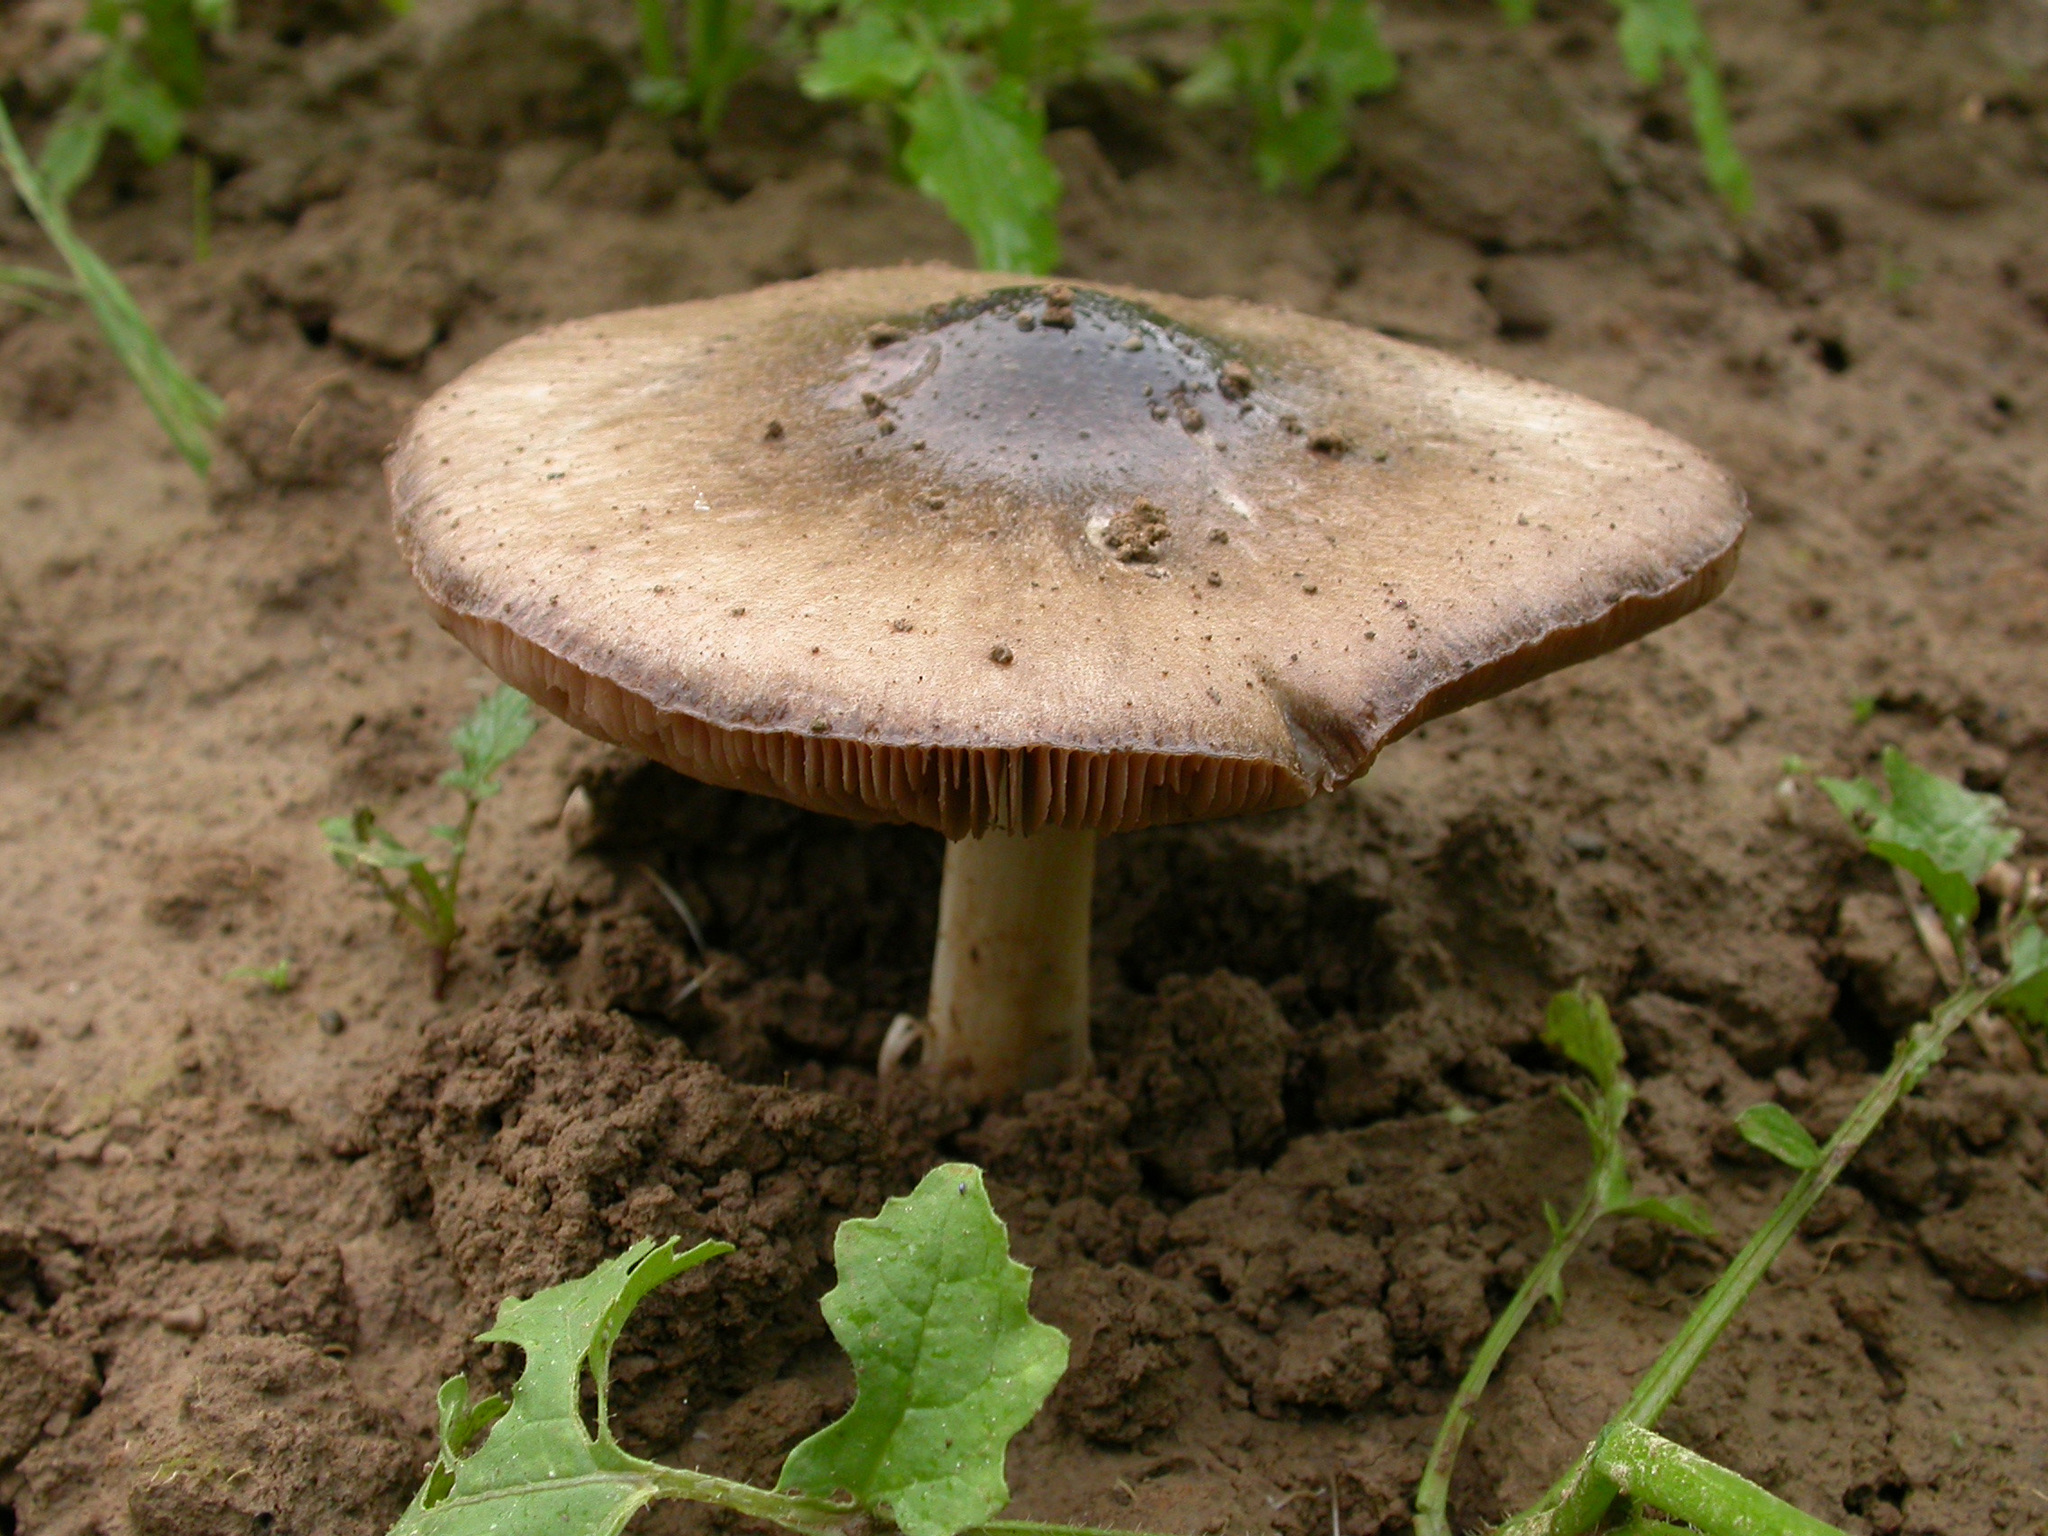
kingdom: Fungi
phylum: Basidiomycota
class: Agaricomycetes
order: Agaricales
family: Pluteaceae
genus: Volvopluteus
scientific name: Volvopluteus gloiocephalus
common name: Stubble rosegill
